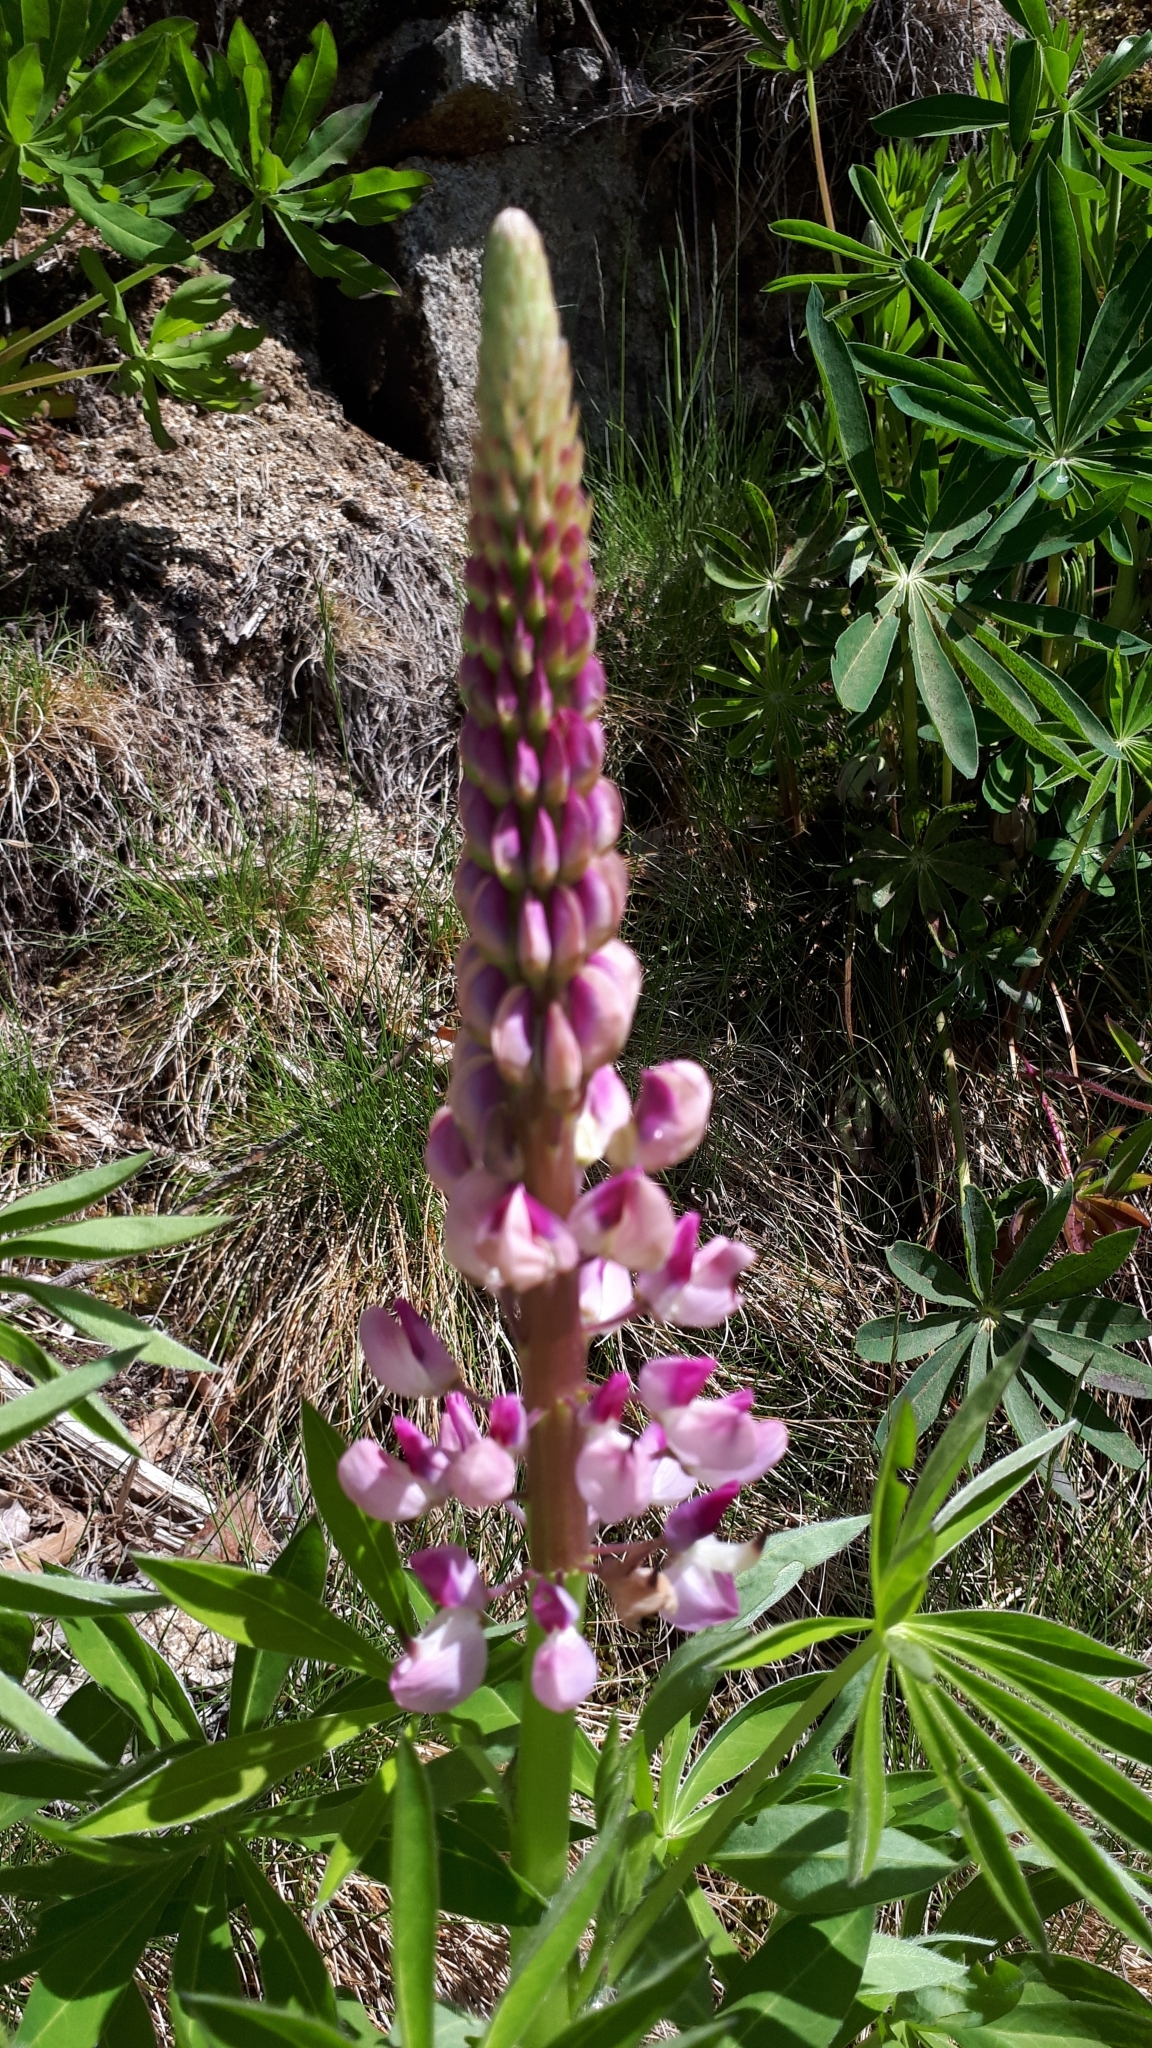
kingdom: Plantae
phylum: Tracheophyta
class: Magnoliopsida
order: Fabales
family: Fabaceae
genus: Lupinus
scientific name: Lupinus polyphyllus
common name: Garden lupin
